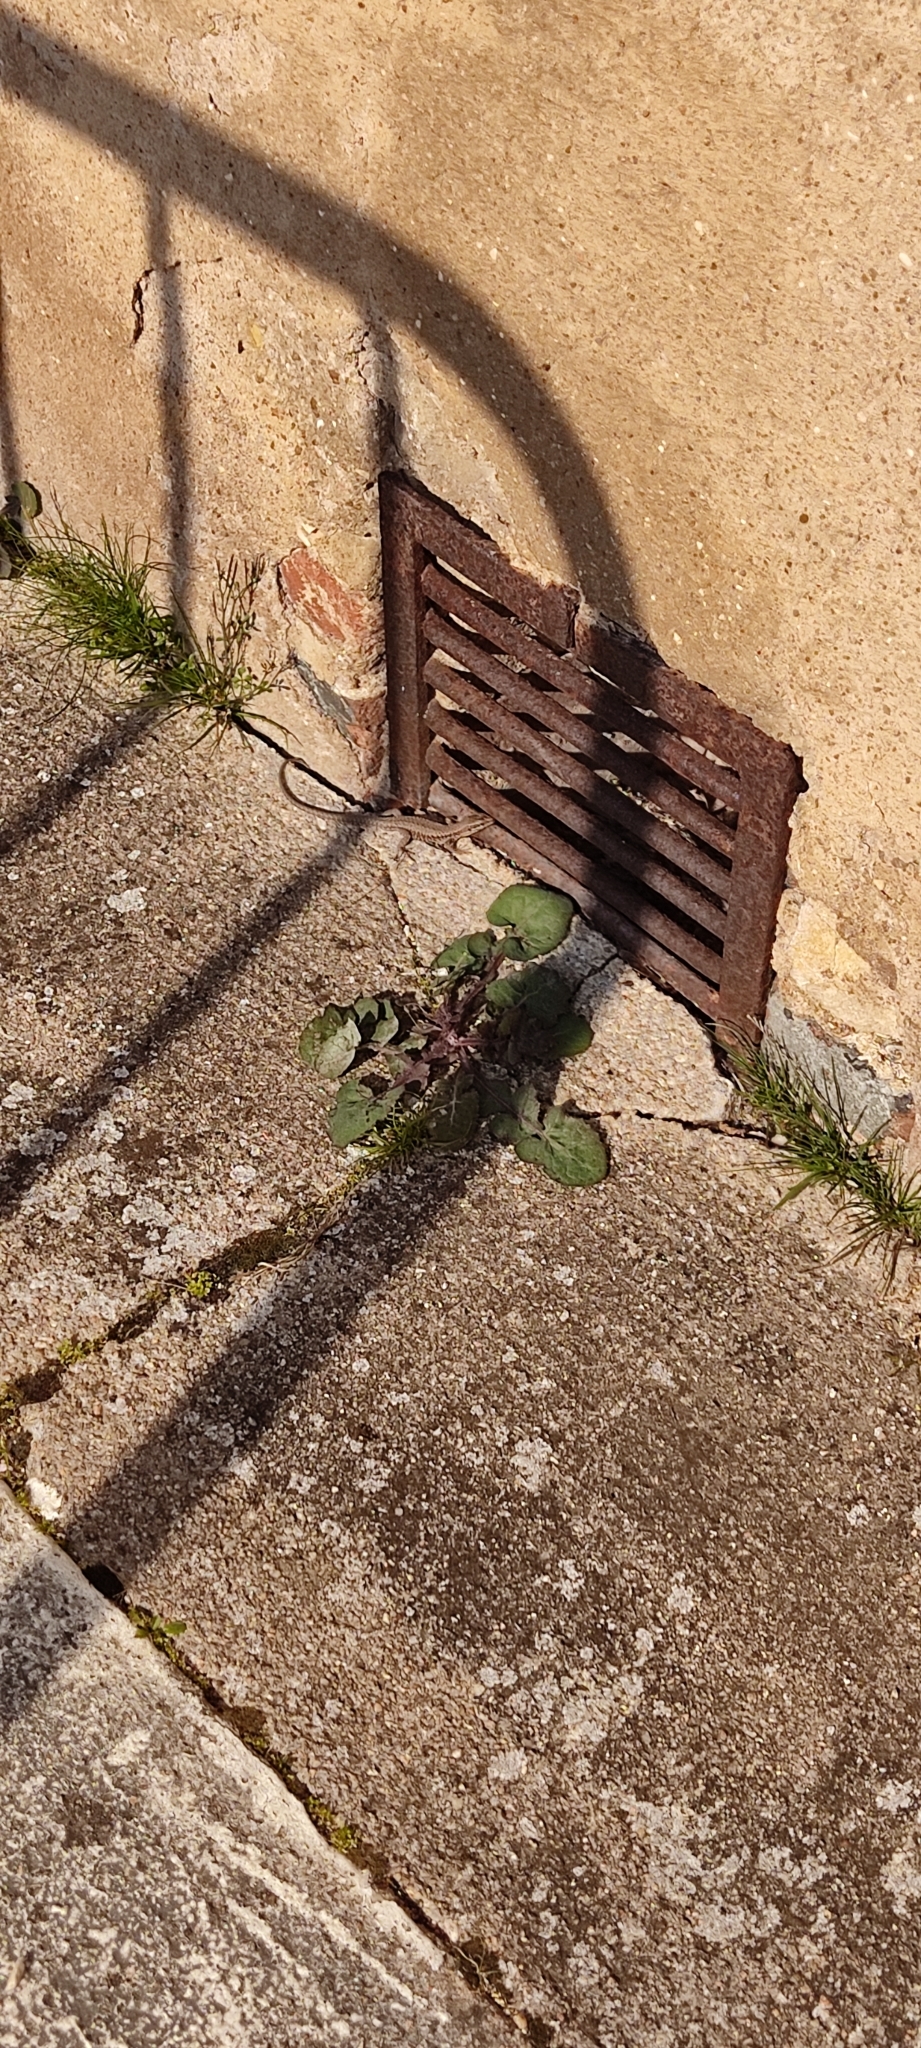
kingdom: Animalia
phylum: Chordata
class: Squamata
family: Lacertidae
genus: Podarcis
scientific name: Podarcis muralis
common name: Common wall lizard
